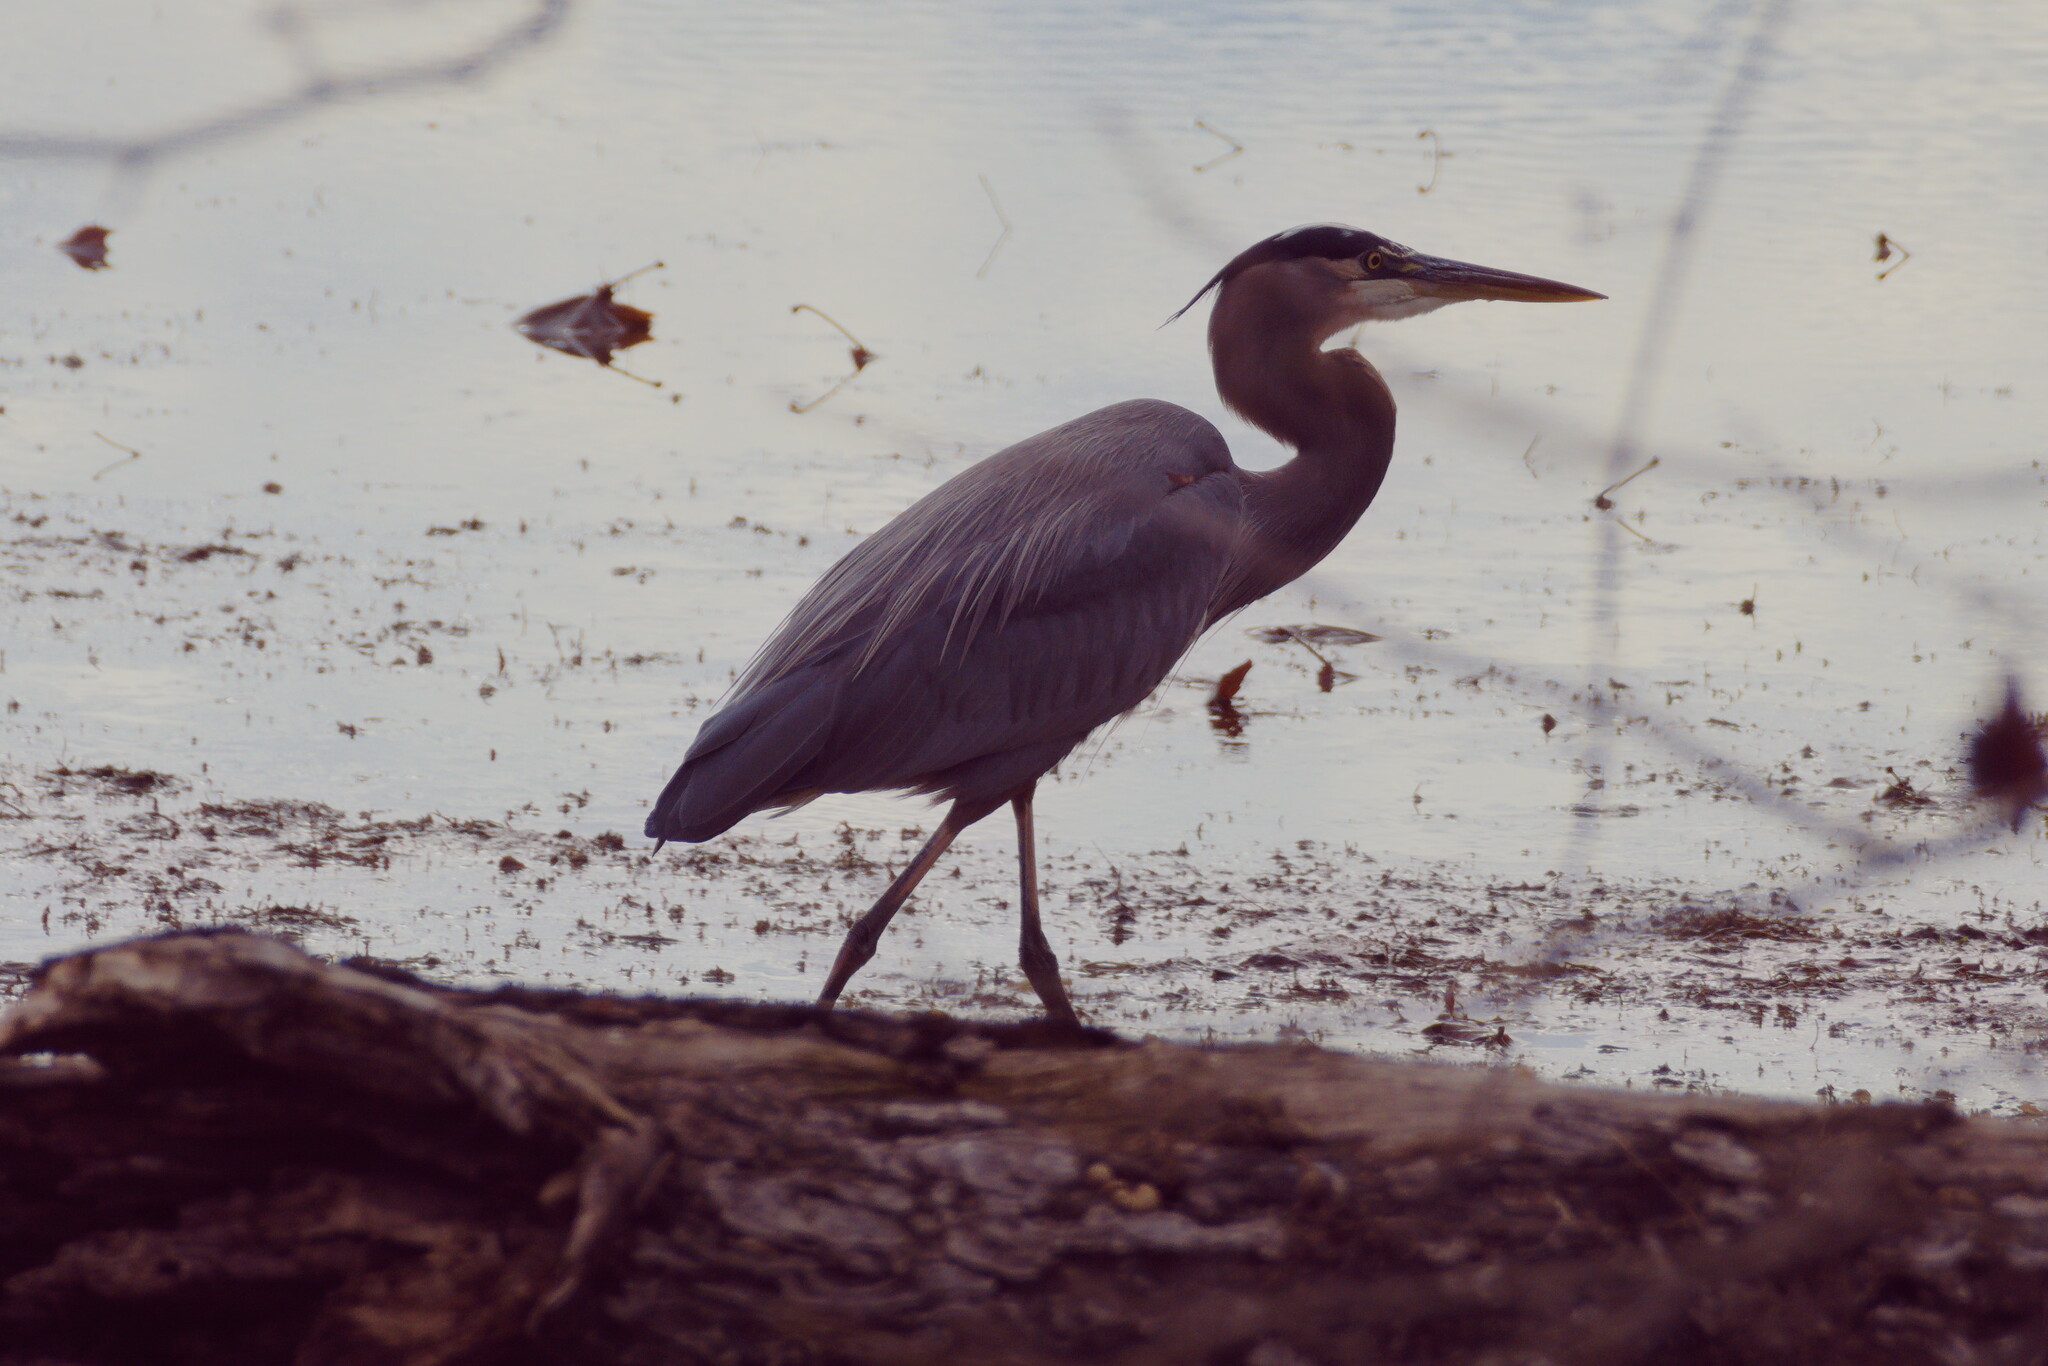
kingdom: Animalia
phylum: Chordata
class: Aves
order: Pelecaniformes
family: Ardeidae
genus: Ardea
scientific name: Ardea herodias
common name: Great blue heron
